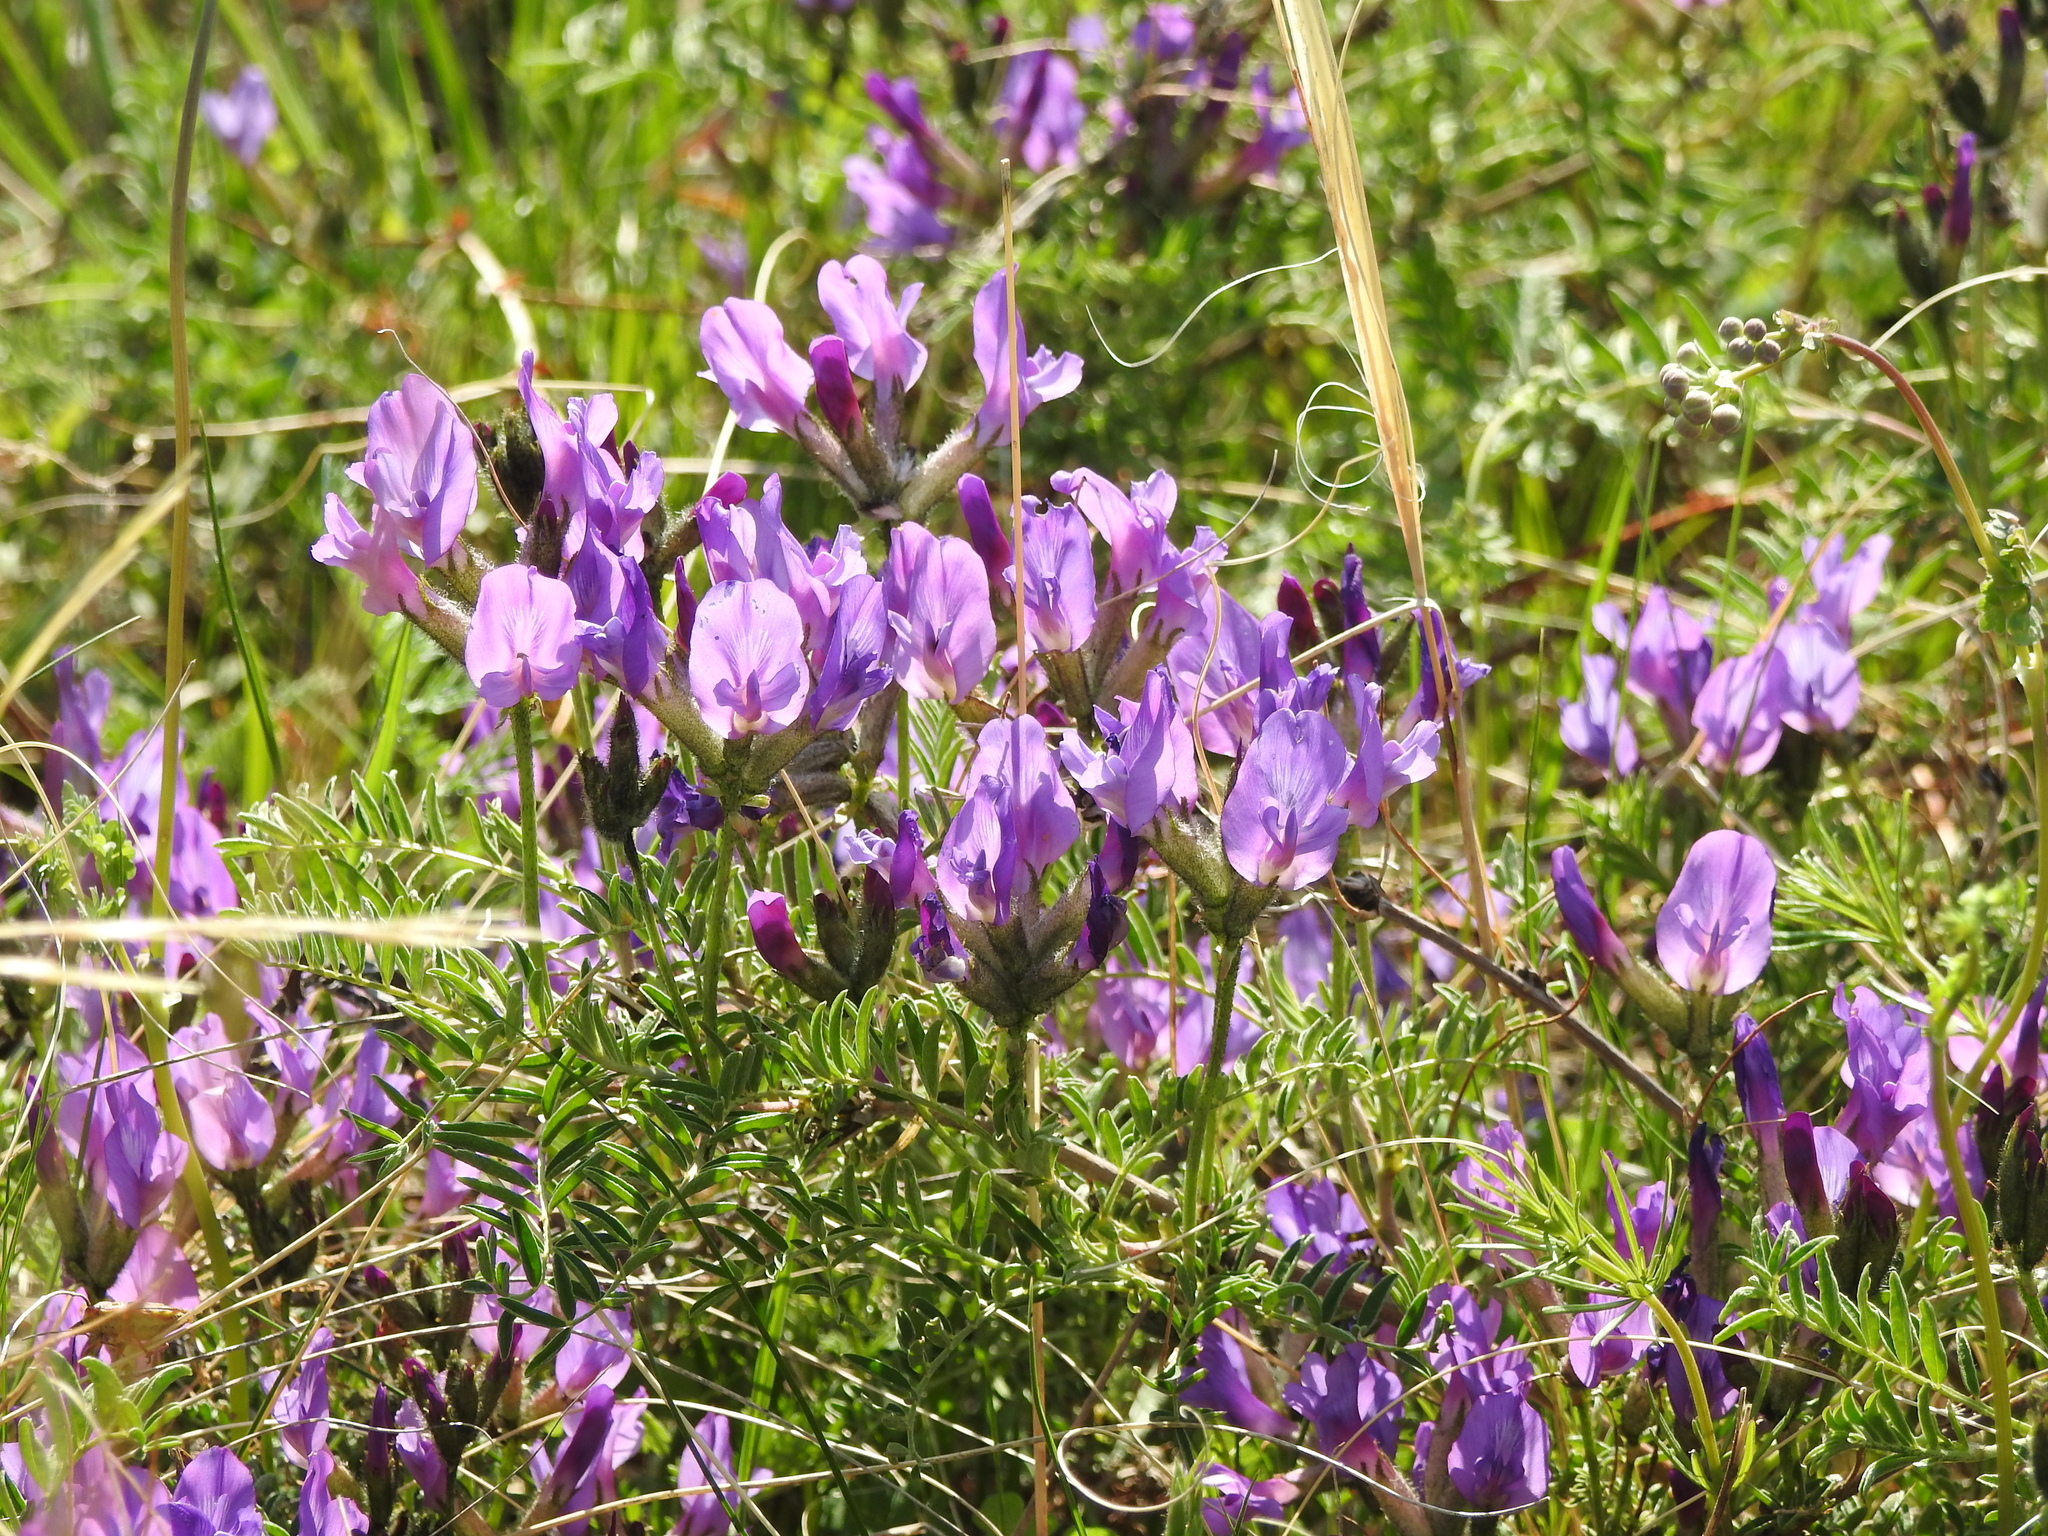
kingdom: Plantae
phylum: Tracheophyta
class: Magnoliopsida
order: Fabales
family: Fabaceae
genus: Astragalus
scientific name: Astragalus syriacus
